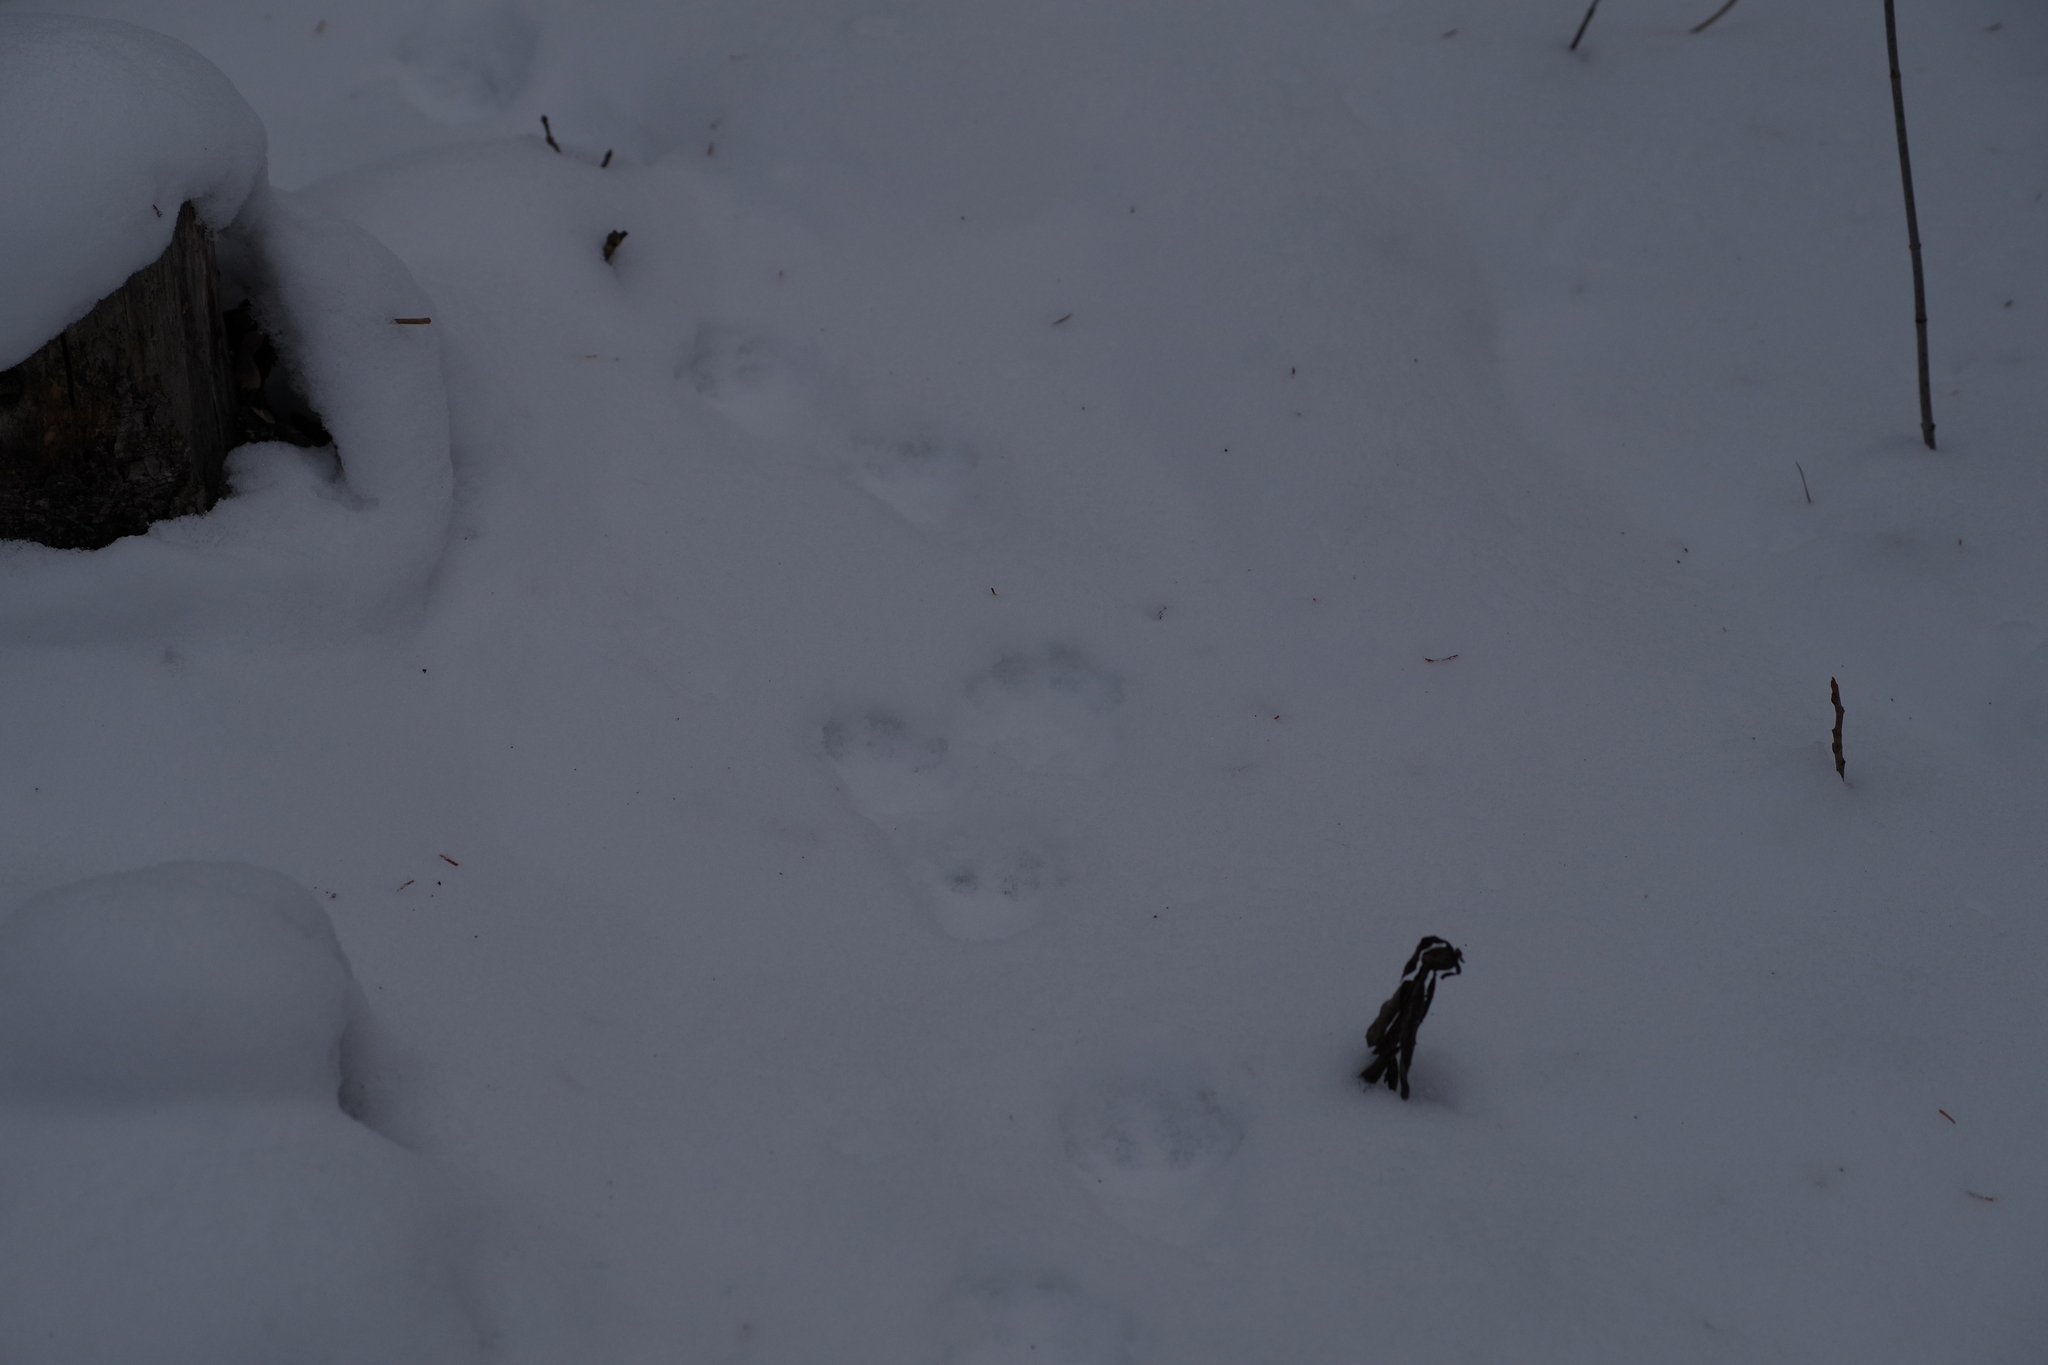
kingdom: Animalia
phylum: Chordata
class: Mammalia
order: Carnivora
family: Mustelidae
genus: Martes
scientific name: Martes americana
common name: American marten
